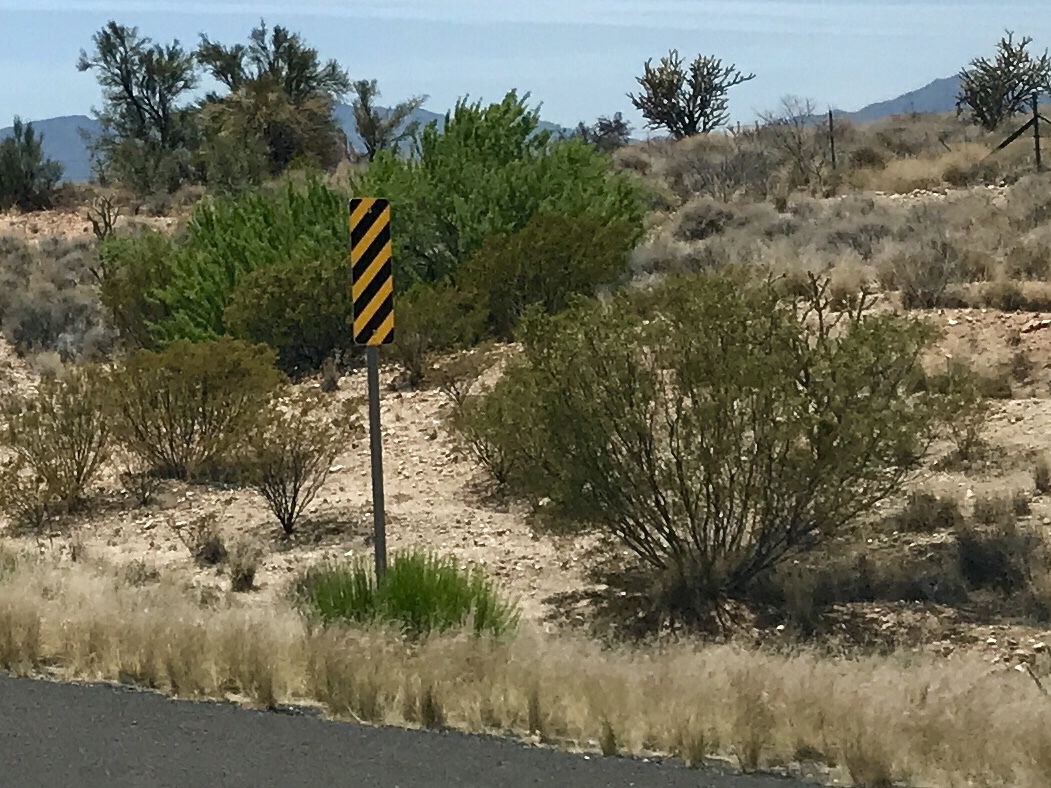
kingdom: Plantae
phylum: Tracheophyta
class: Magnoliopsida
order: Zygophyllales
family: Zygophyllaceae
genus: Larrea
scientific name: Larrea tridentata
